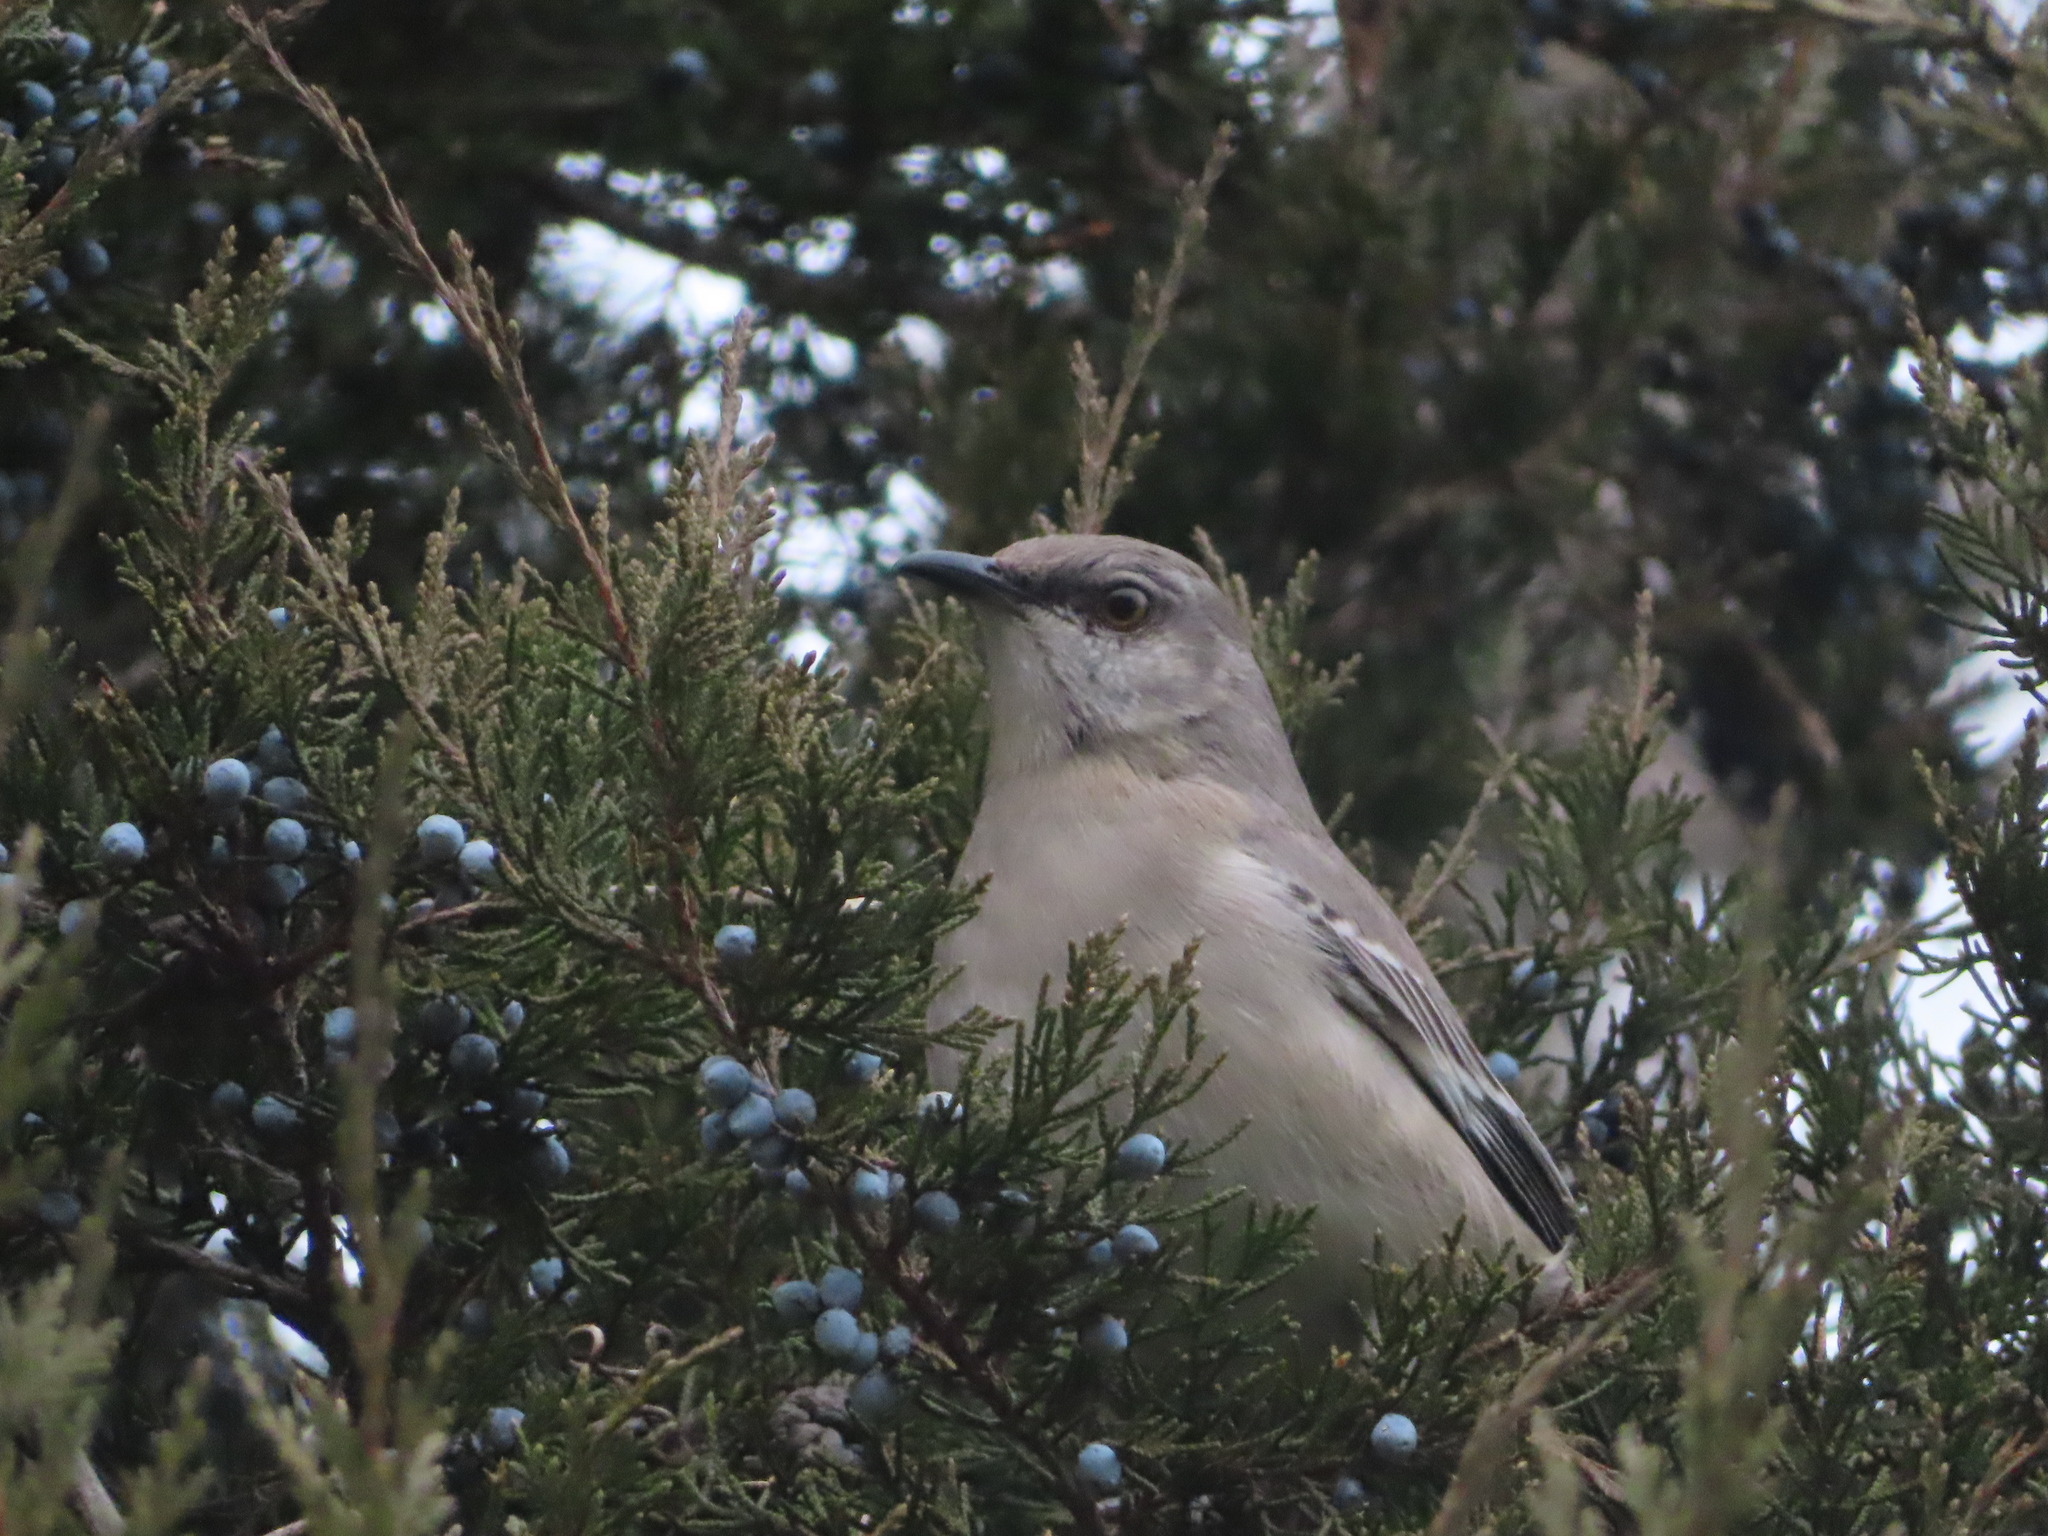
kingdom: Animalia
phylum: Chordata
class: Aves
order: Passeriformes
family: Mimidae
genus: Mimus
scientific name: Mimus polyglottos
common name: Northern mockingbird
